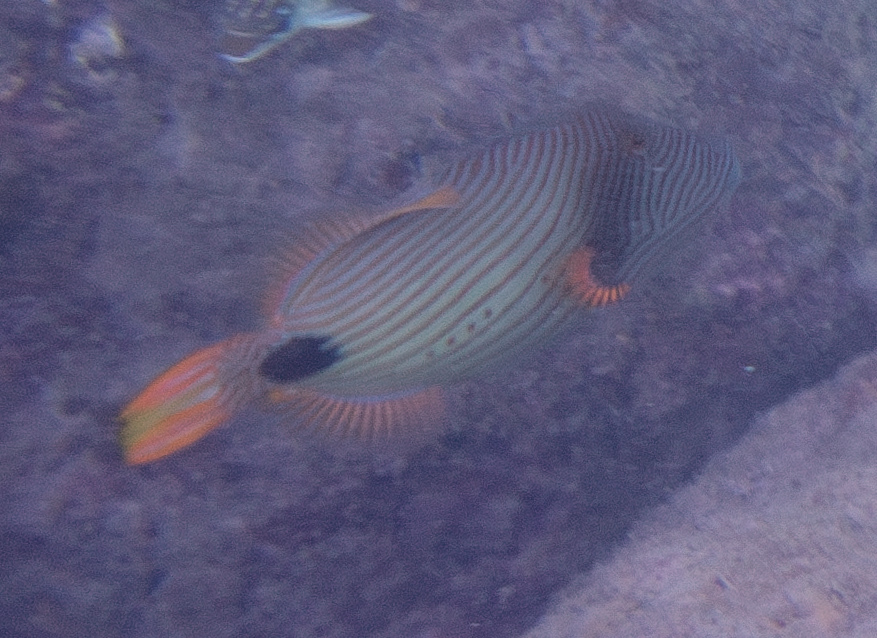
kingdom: Animalia
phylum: Chordata
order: Tetraodontiformes
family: Balistidae
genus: Balistapus
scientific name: Balistapus undulatus
